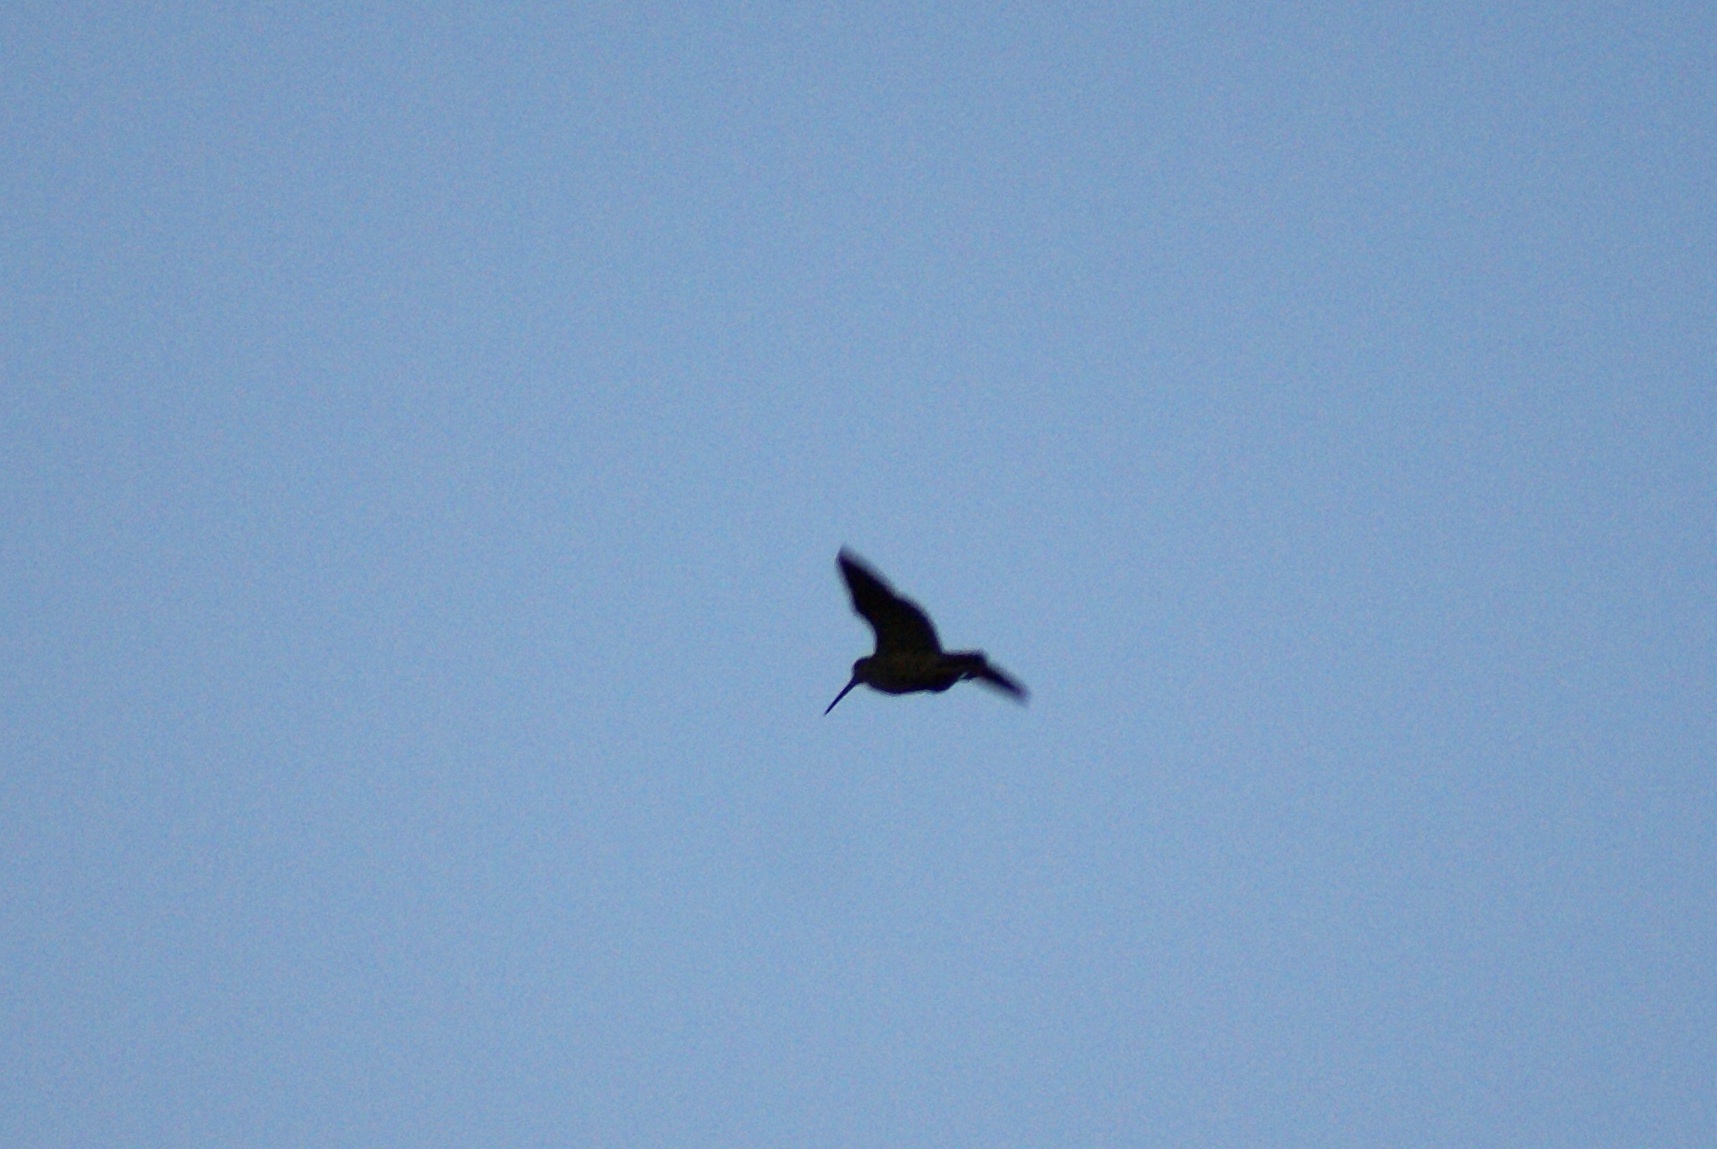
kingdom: Animalia
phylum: Chordata
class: Aves
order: Charadriiformes
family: Scolopacidae
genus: Scolopax
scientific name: Scolopax rusticola
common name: Eurasian woodcock
